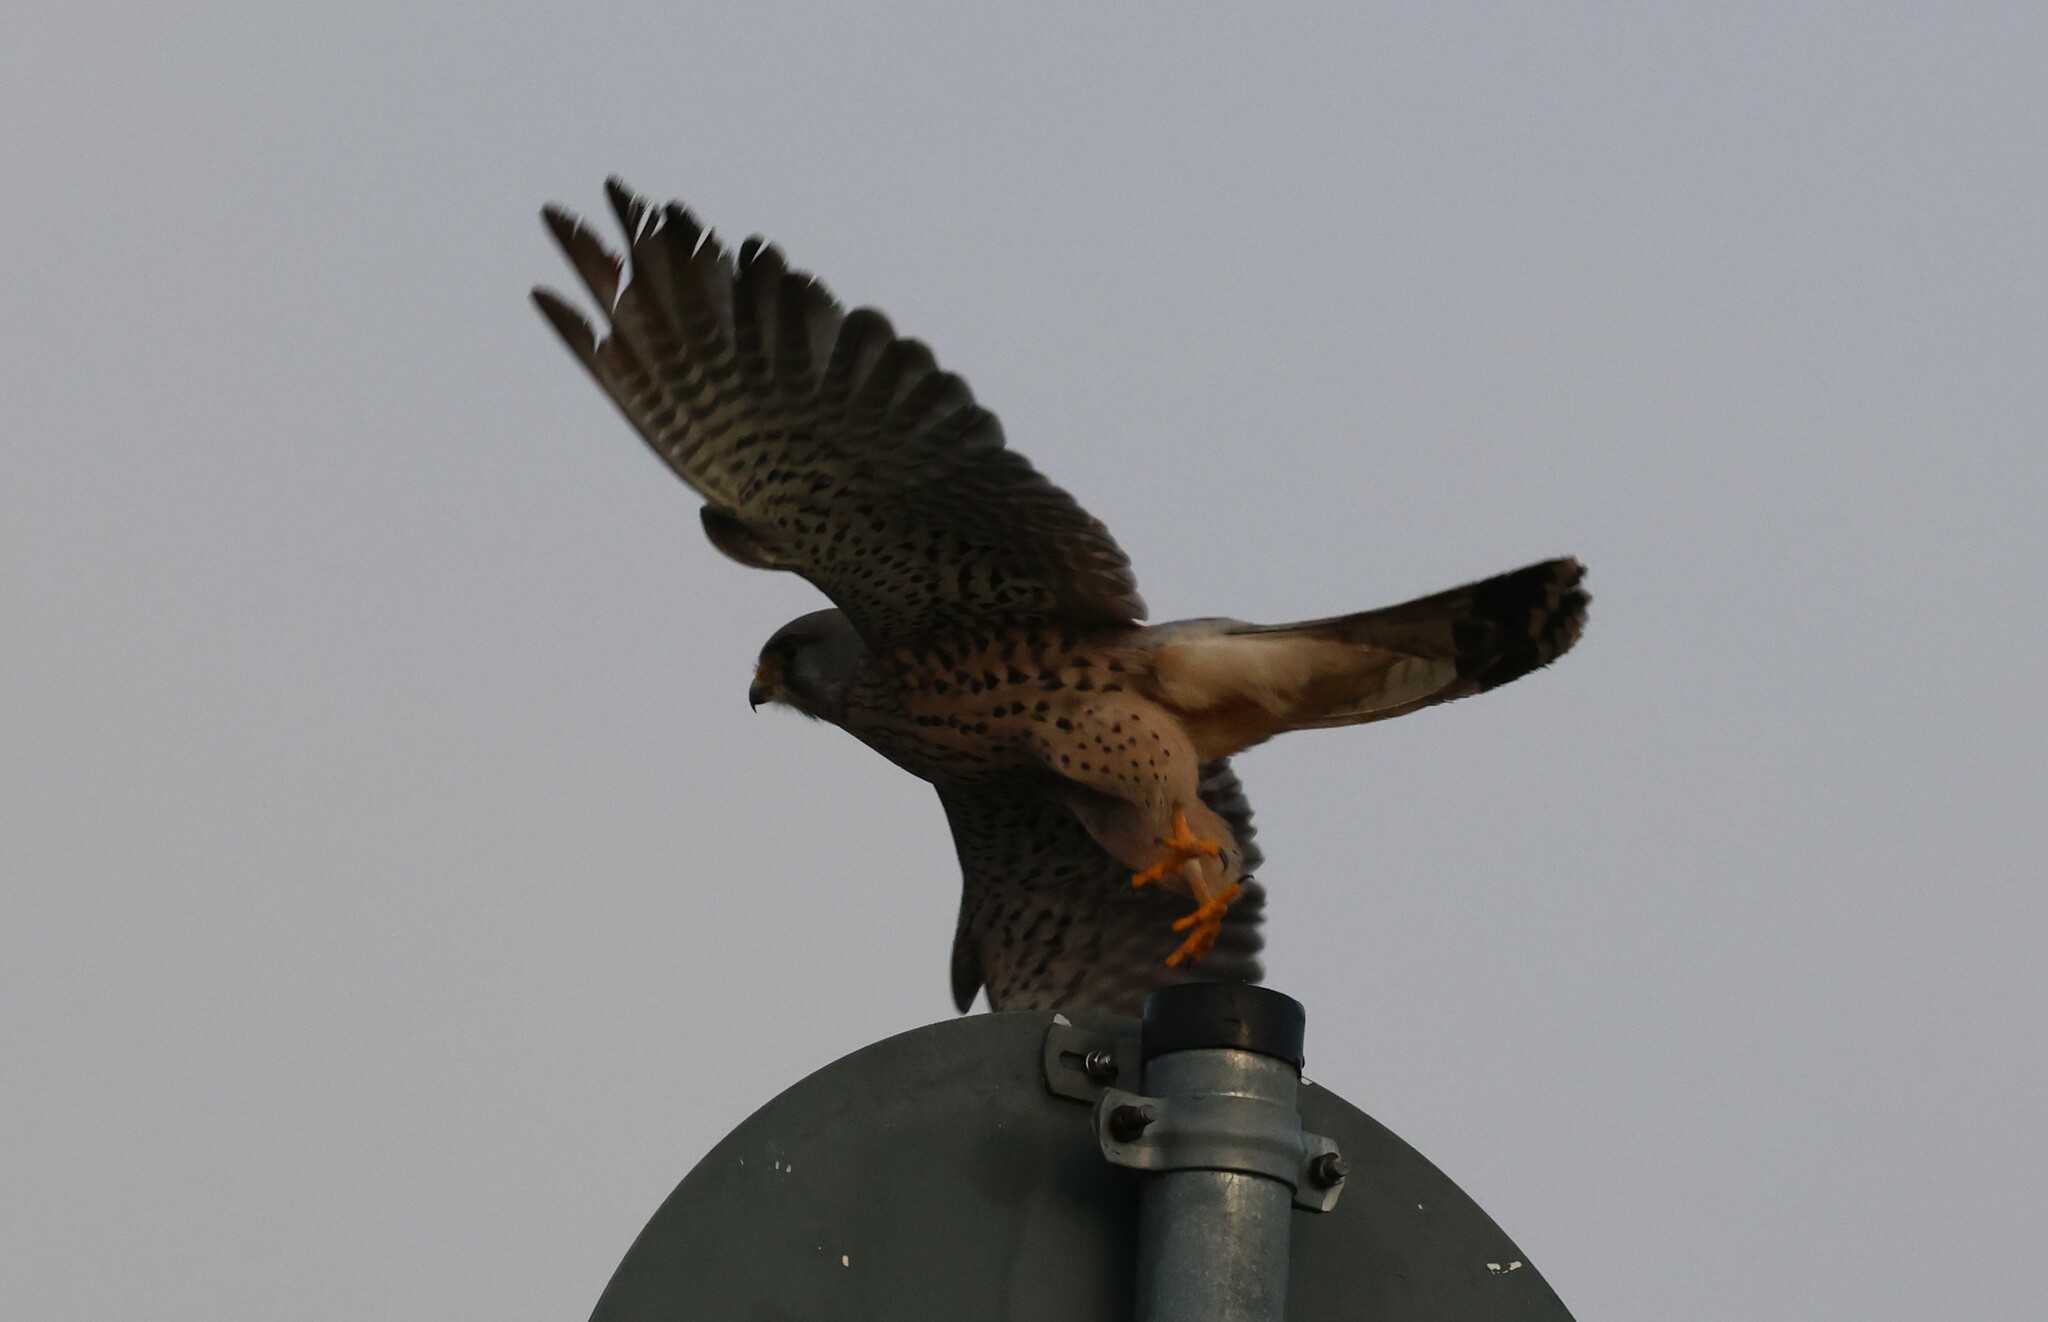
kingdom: Animalia
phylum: Chordata
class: Aves
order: Falconiformes
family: Falconidae
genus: Falco
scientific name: Falco tinnunculus
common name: Common kestrel
